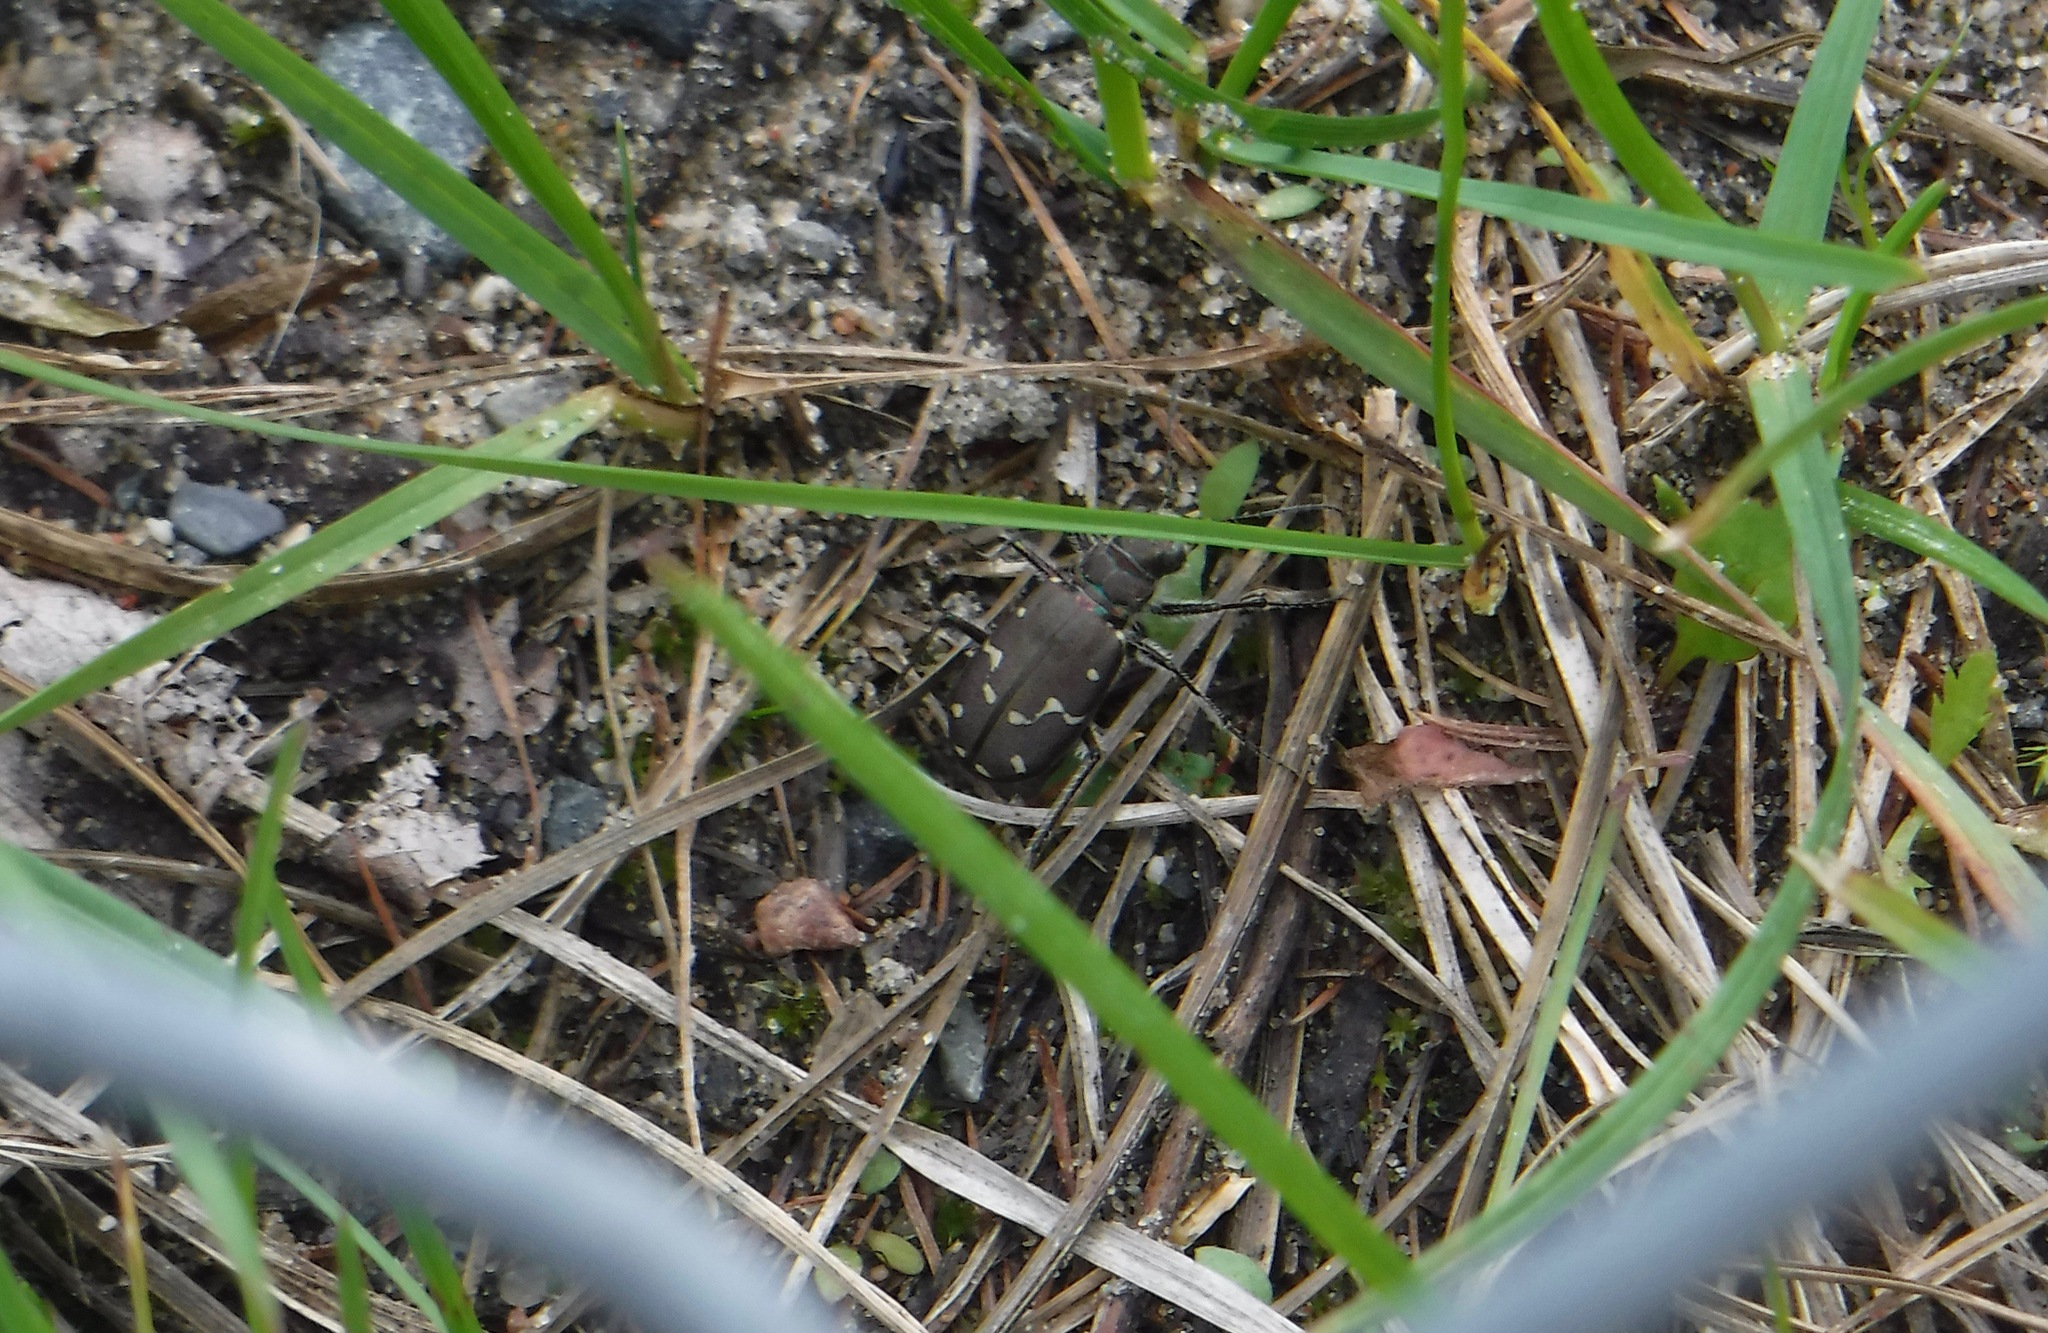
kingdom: Animalia
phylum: Arthropoda
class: Insecta
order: Coleoptera
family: Carabidae
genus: Cicindela
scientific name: Cicindela duodecimguttata
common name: Twelve-spotted tiger beetle
